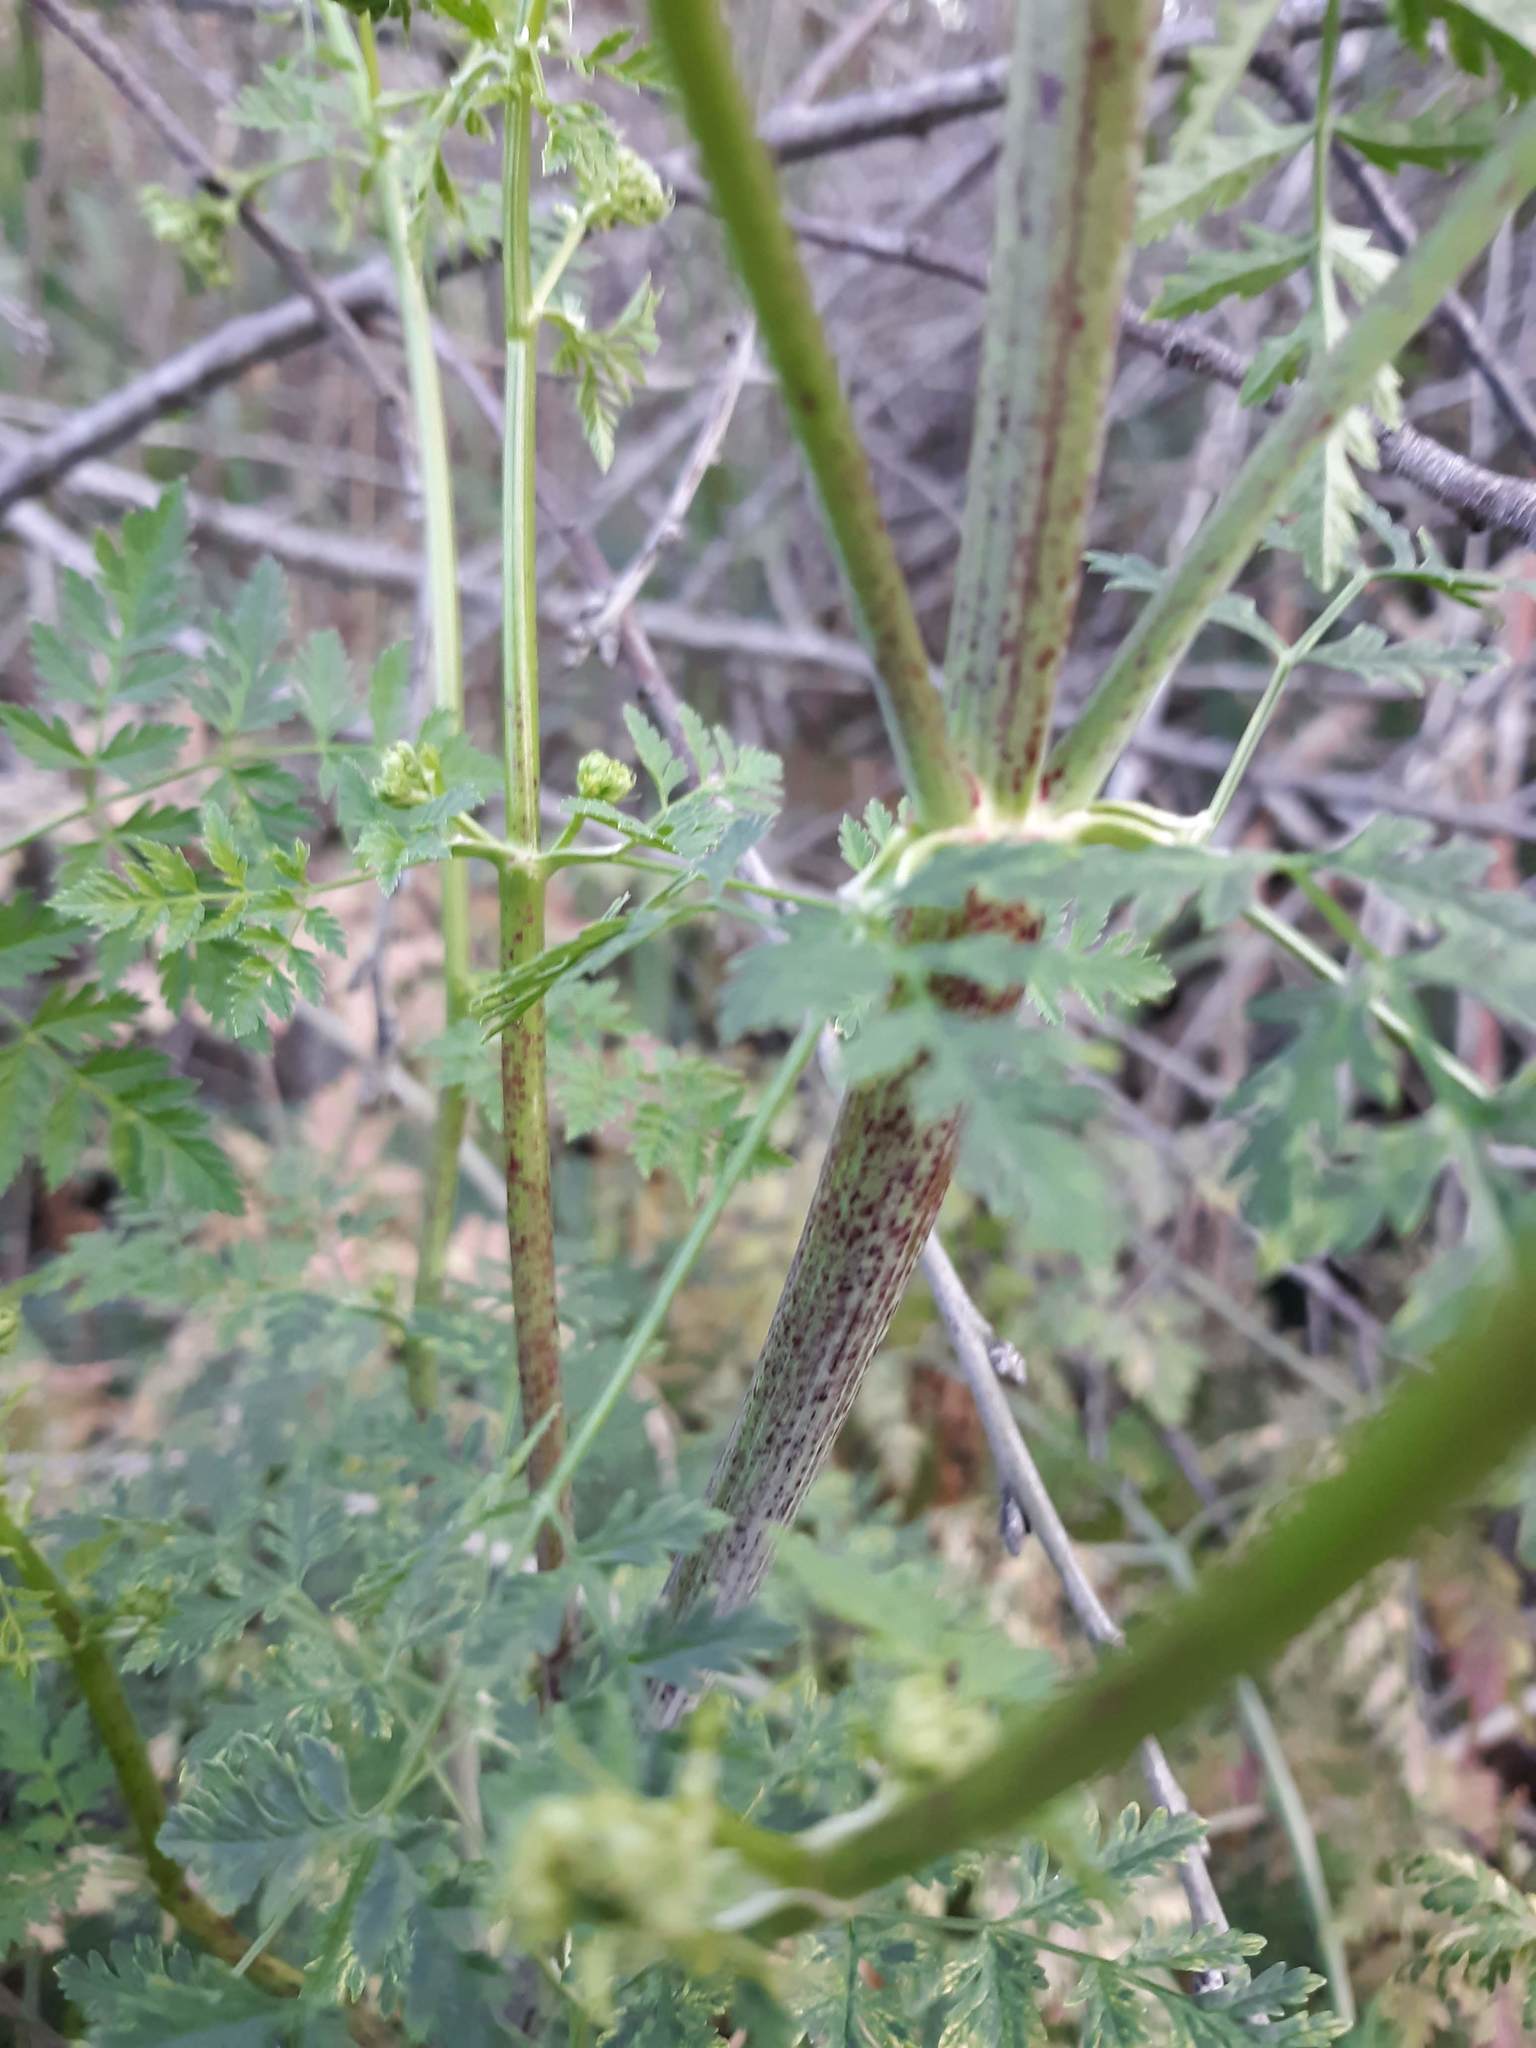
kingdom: Plantae
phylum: Tracheophyta
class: Magnoliopsida
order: Apiales
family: Apiaceae
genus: Conium
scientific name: Conium maculatum
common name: Hemlock
